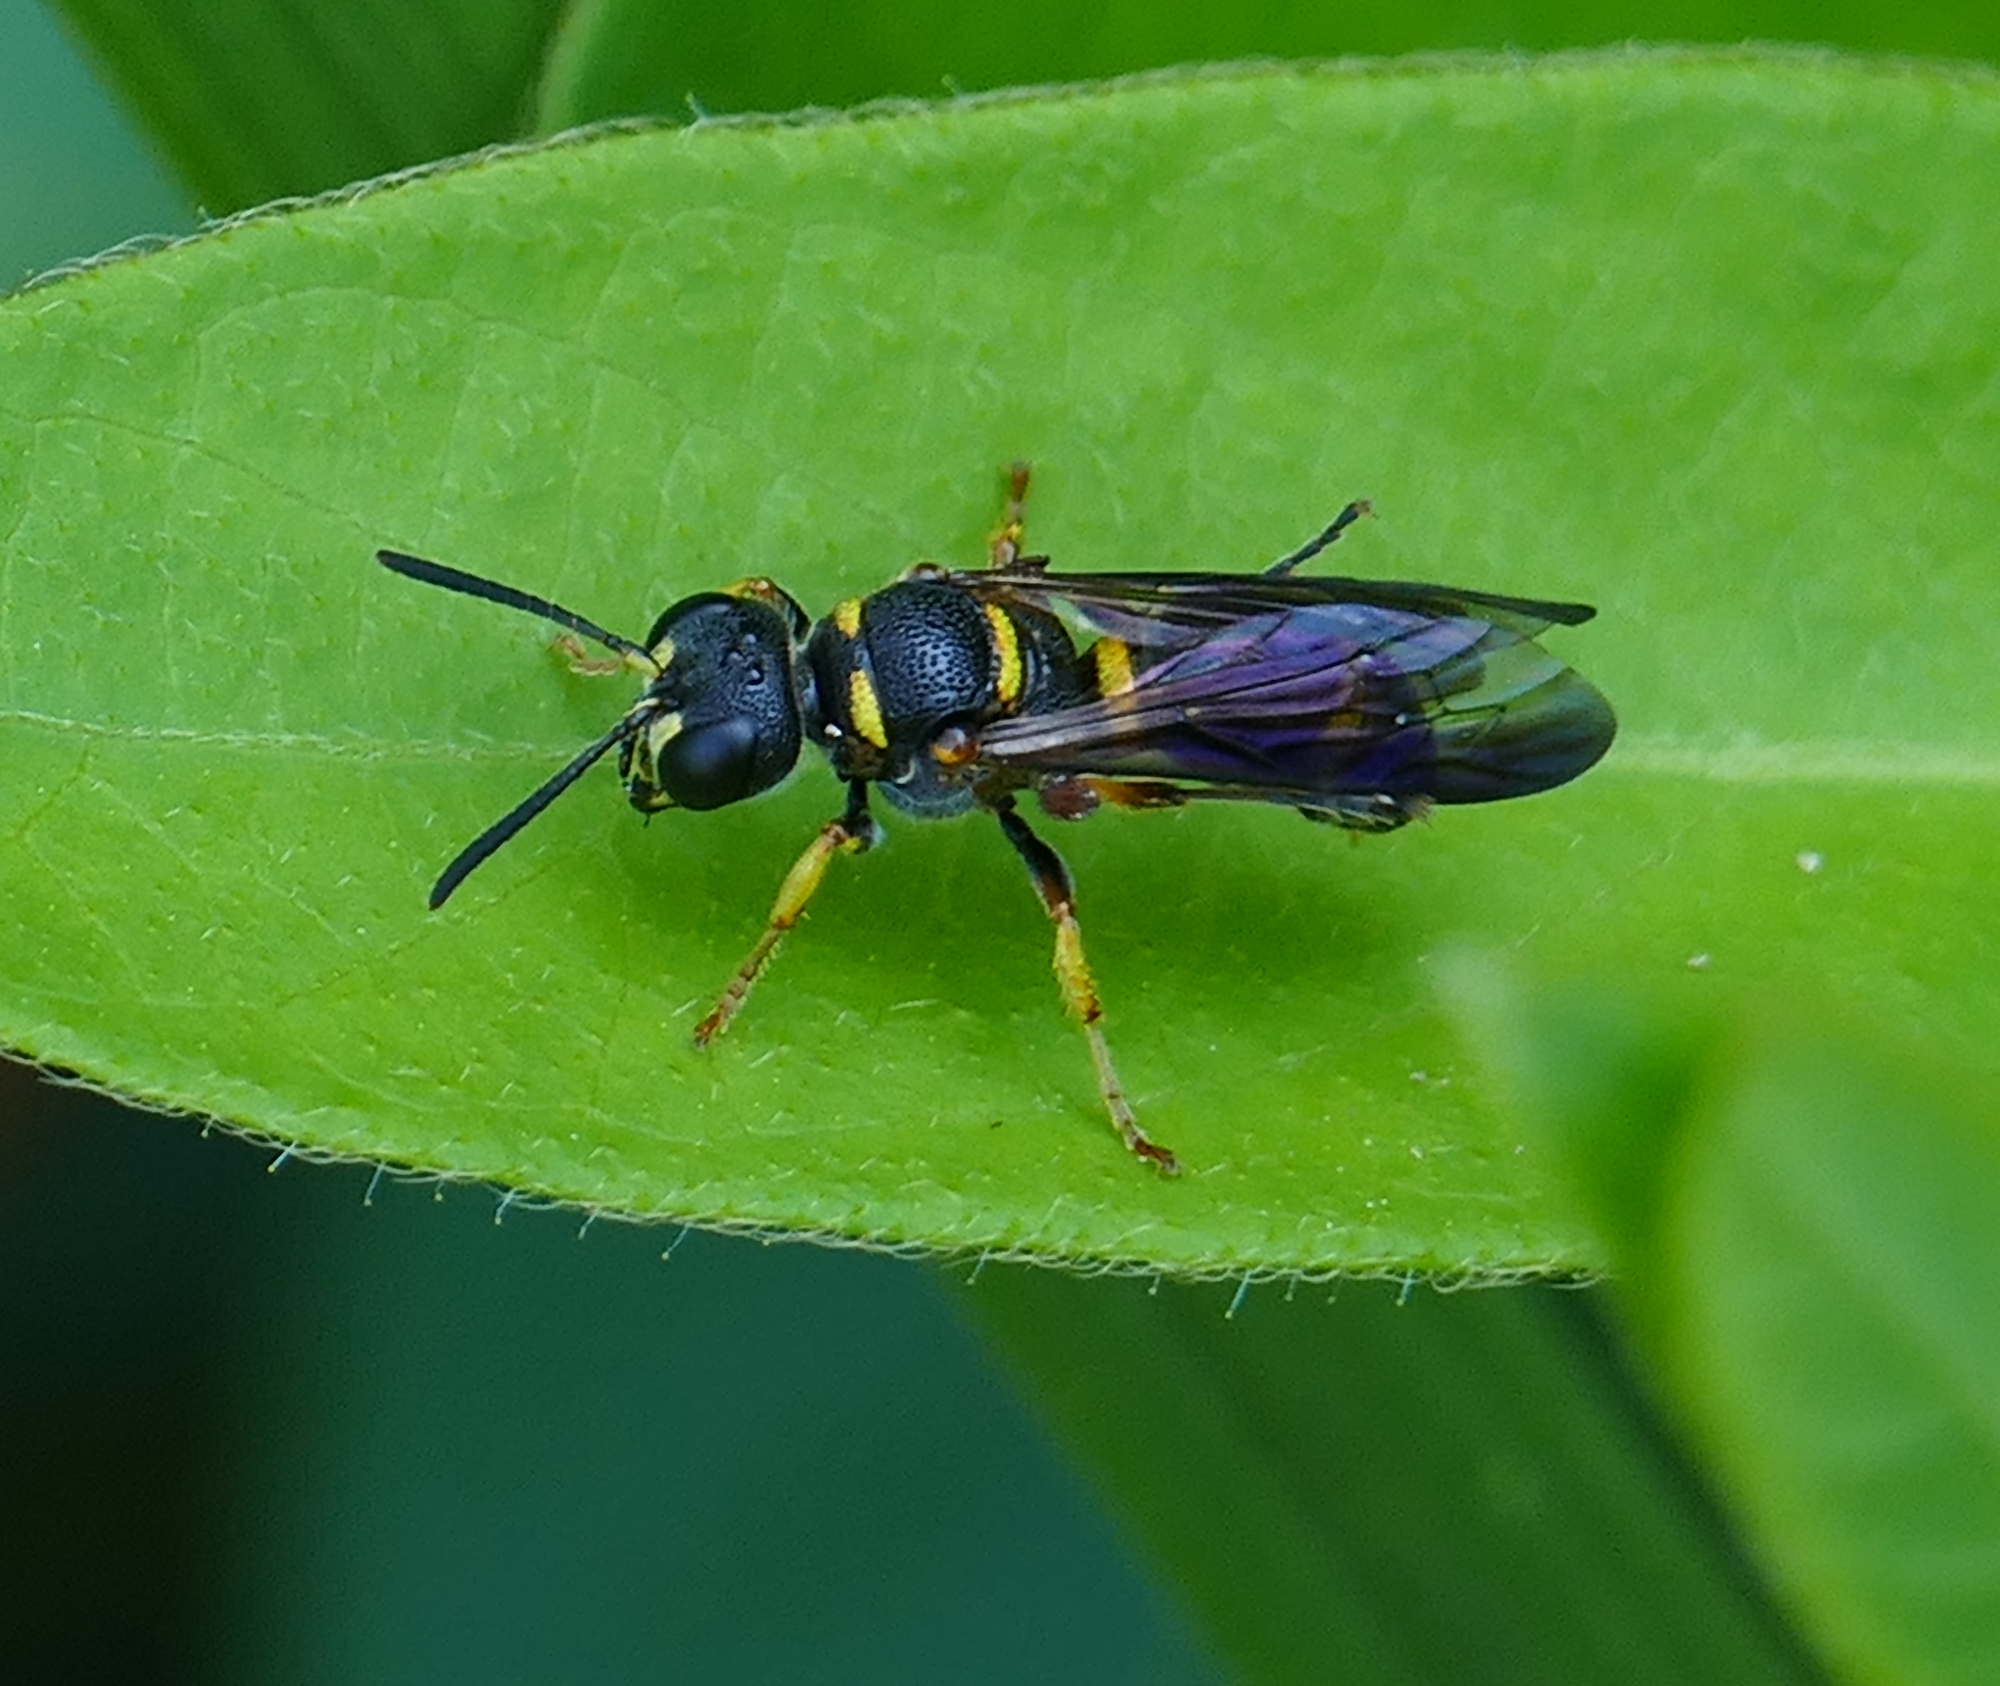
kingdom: Animalia
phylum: Arthropoda
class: Insecta
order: Hymenoptera
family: Crabronidae
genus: Cerceris
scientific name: Cerceris insolita
